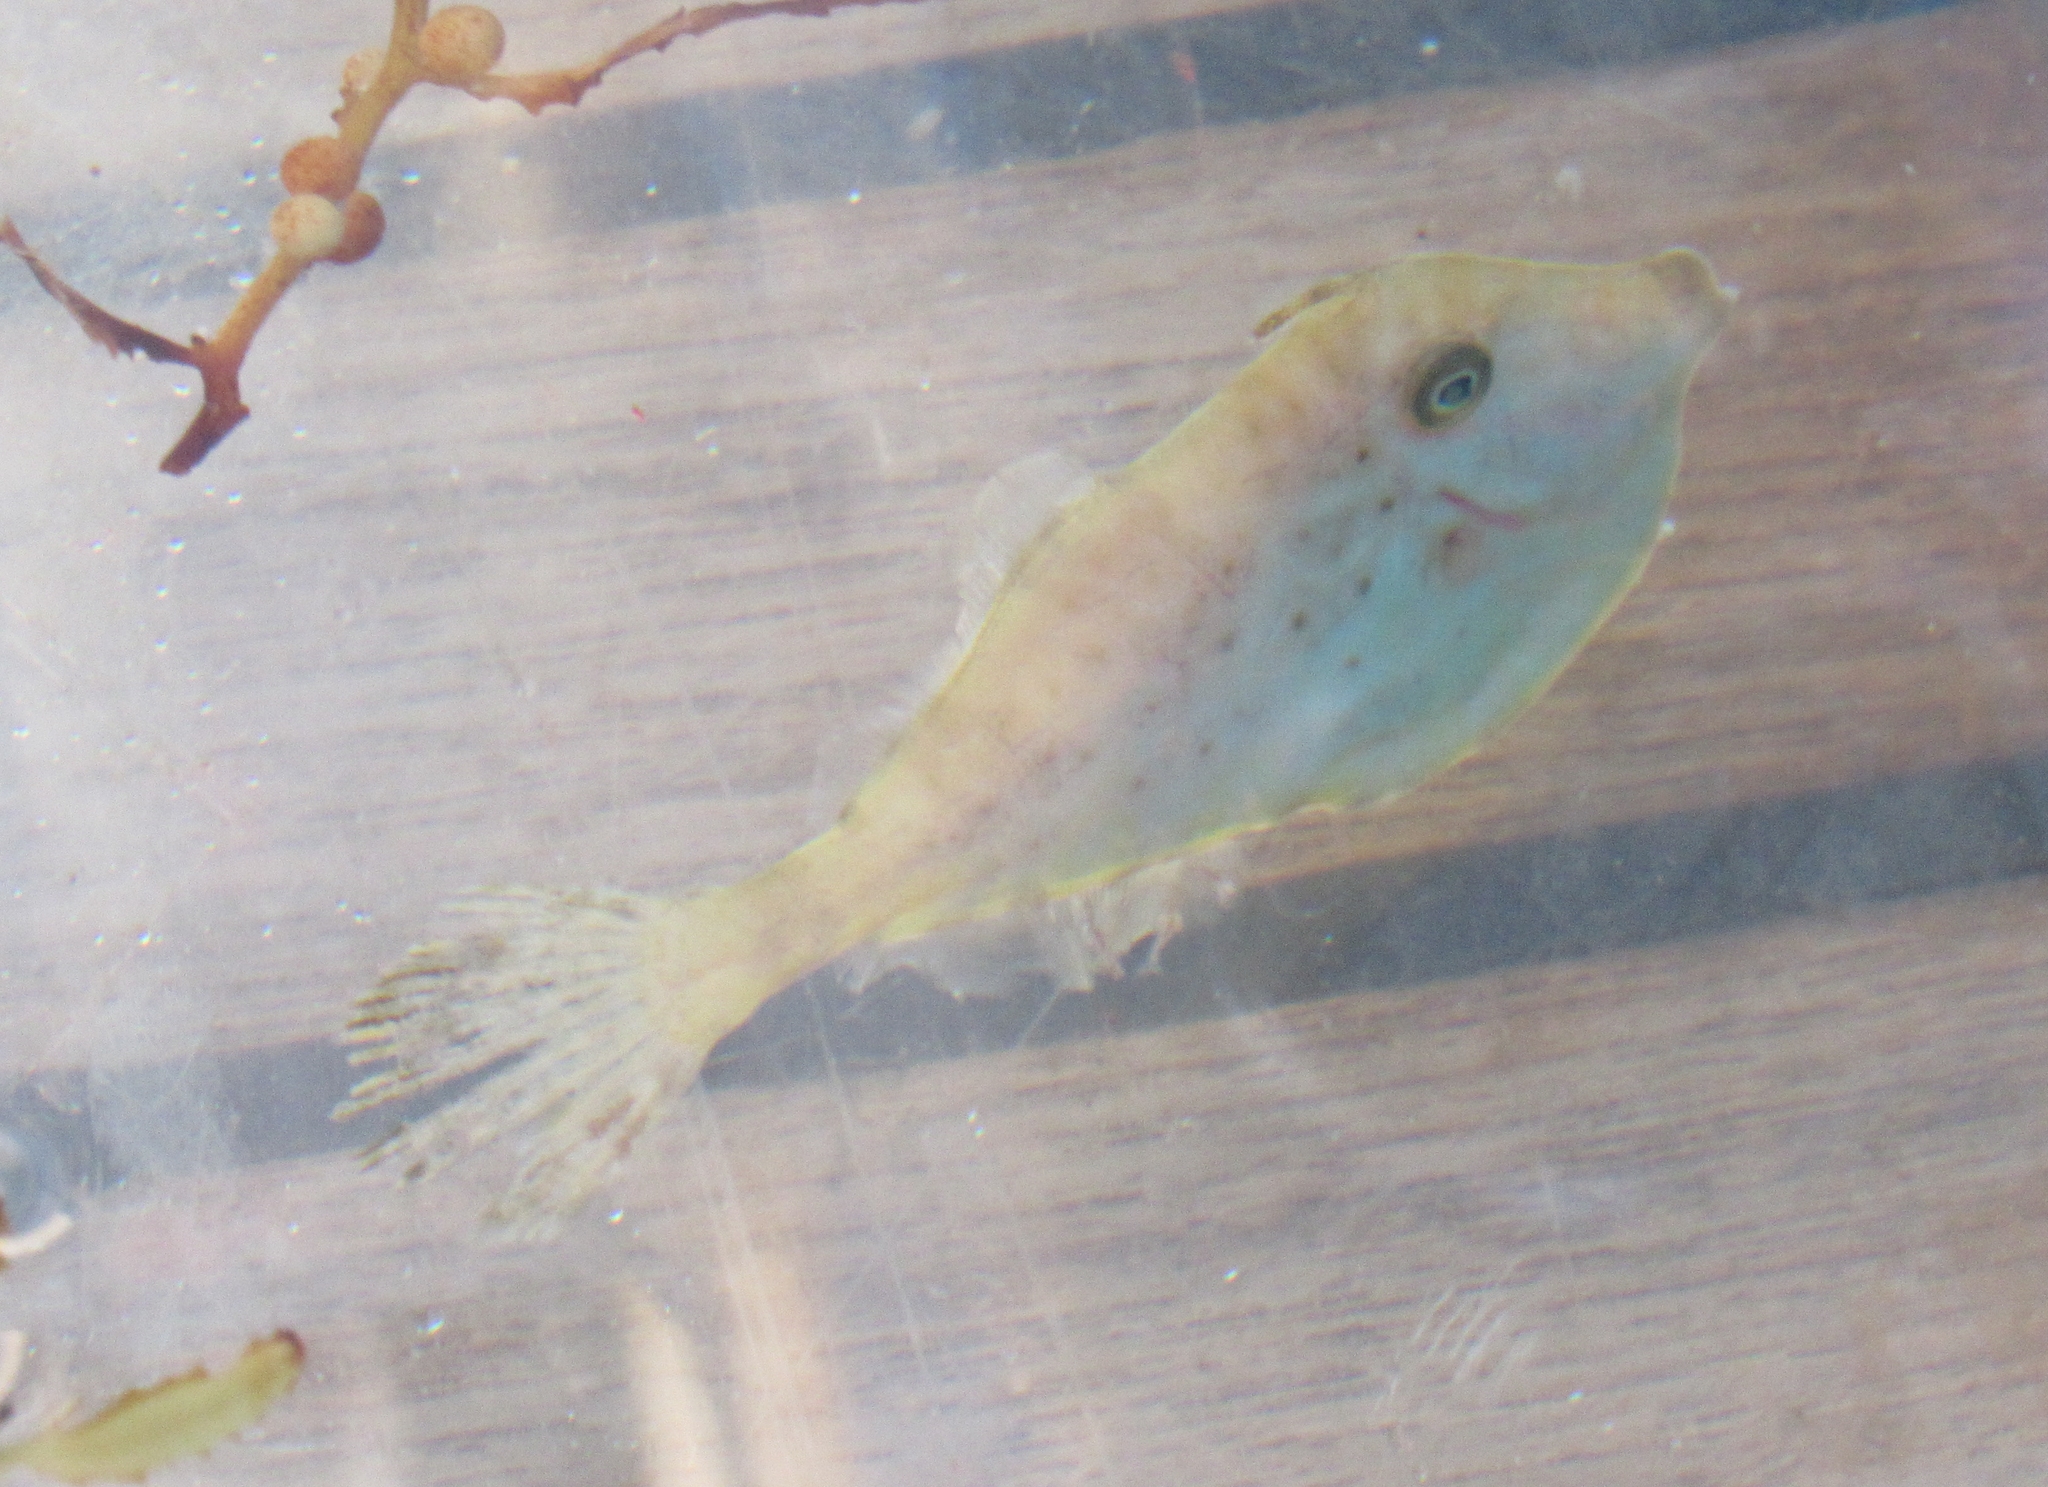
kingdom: Animalia
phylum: Chordata
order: Tetraodontiformes
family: Monacanthidae
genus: Aluterus
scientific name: Aluterus monoceros
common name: Batfish
